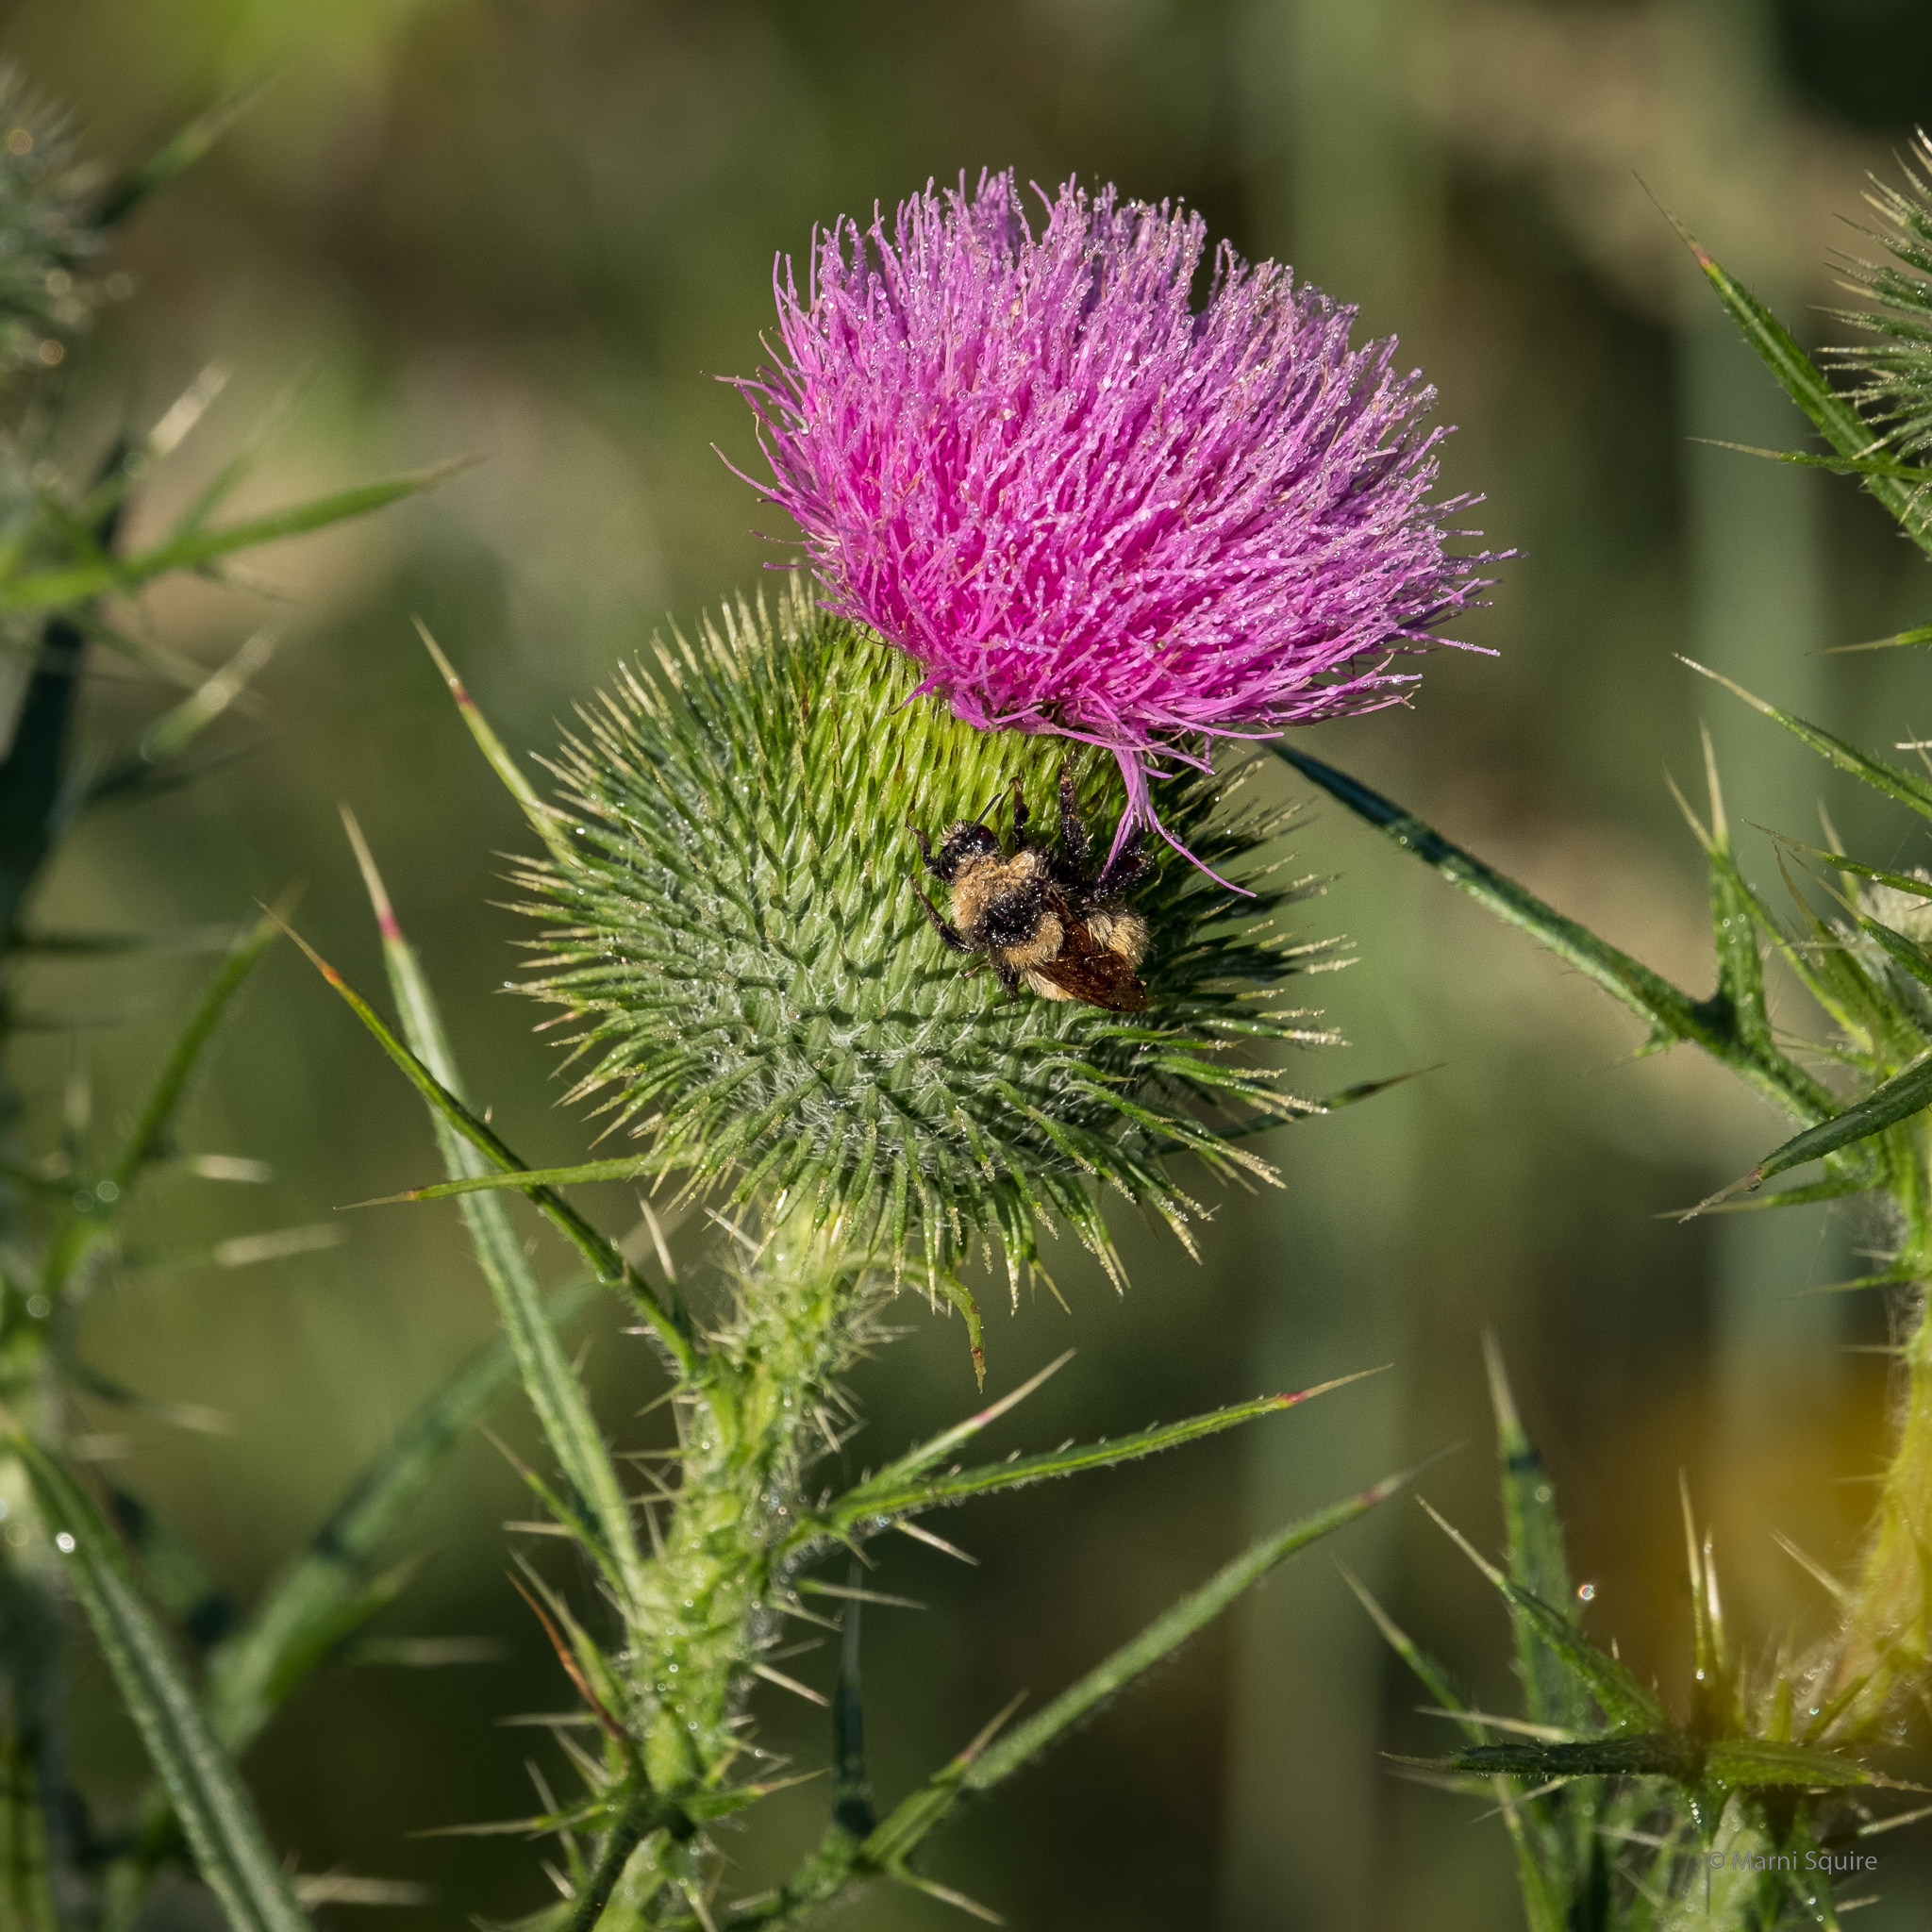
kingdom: Plantae
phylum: Tracheophyta
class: Magnoliopsida
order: Asterales
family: Asteraceae
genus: Cirsium
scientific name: Cirsium vulgare
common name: Bull thistle
